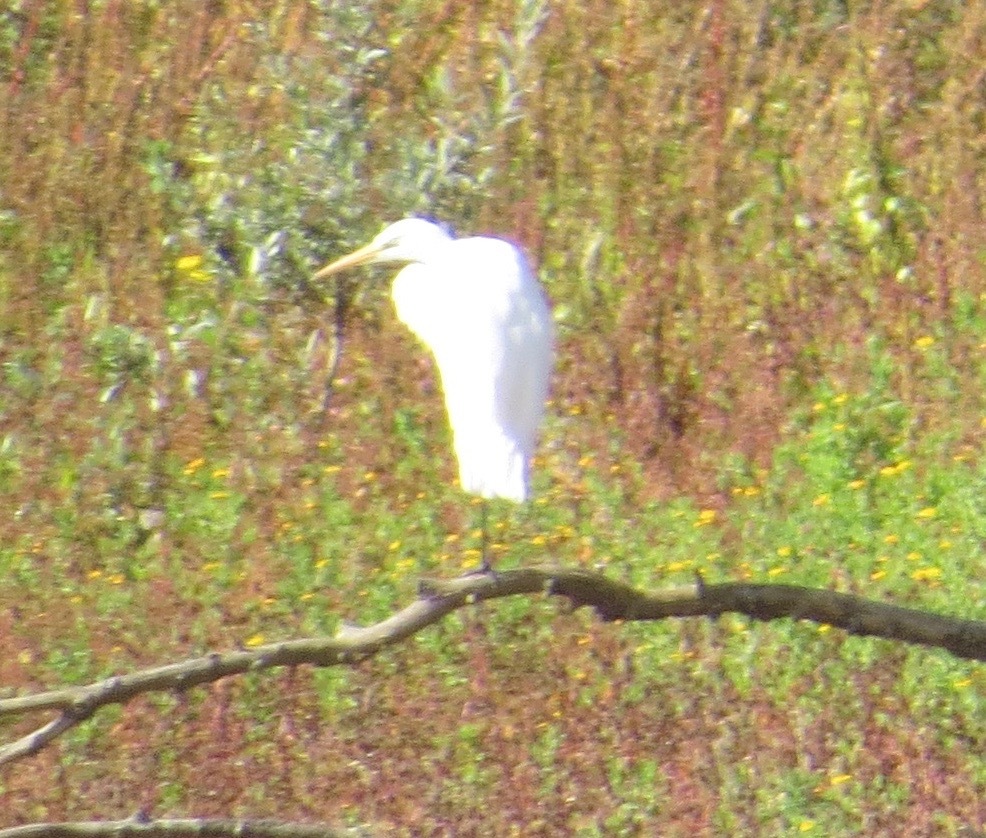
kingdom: Animalia
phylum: Chordata
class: Aves
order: Pelecaniformes
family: Ardeidae
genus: Ardea
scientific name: Ardea alba
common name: Great egret
